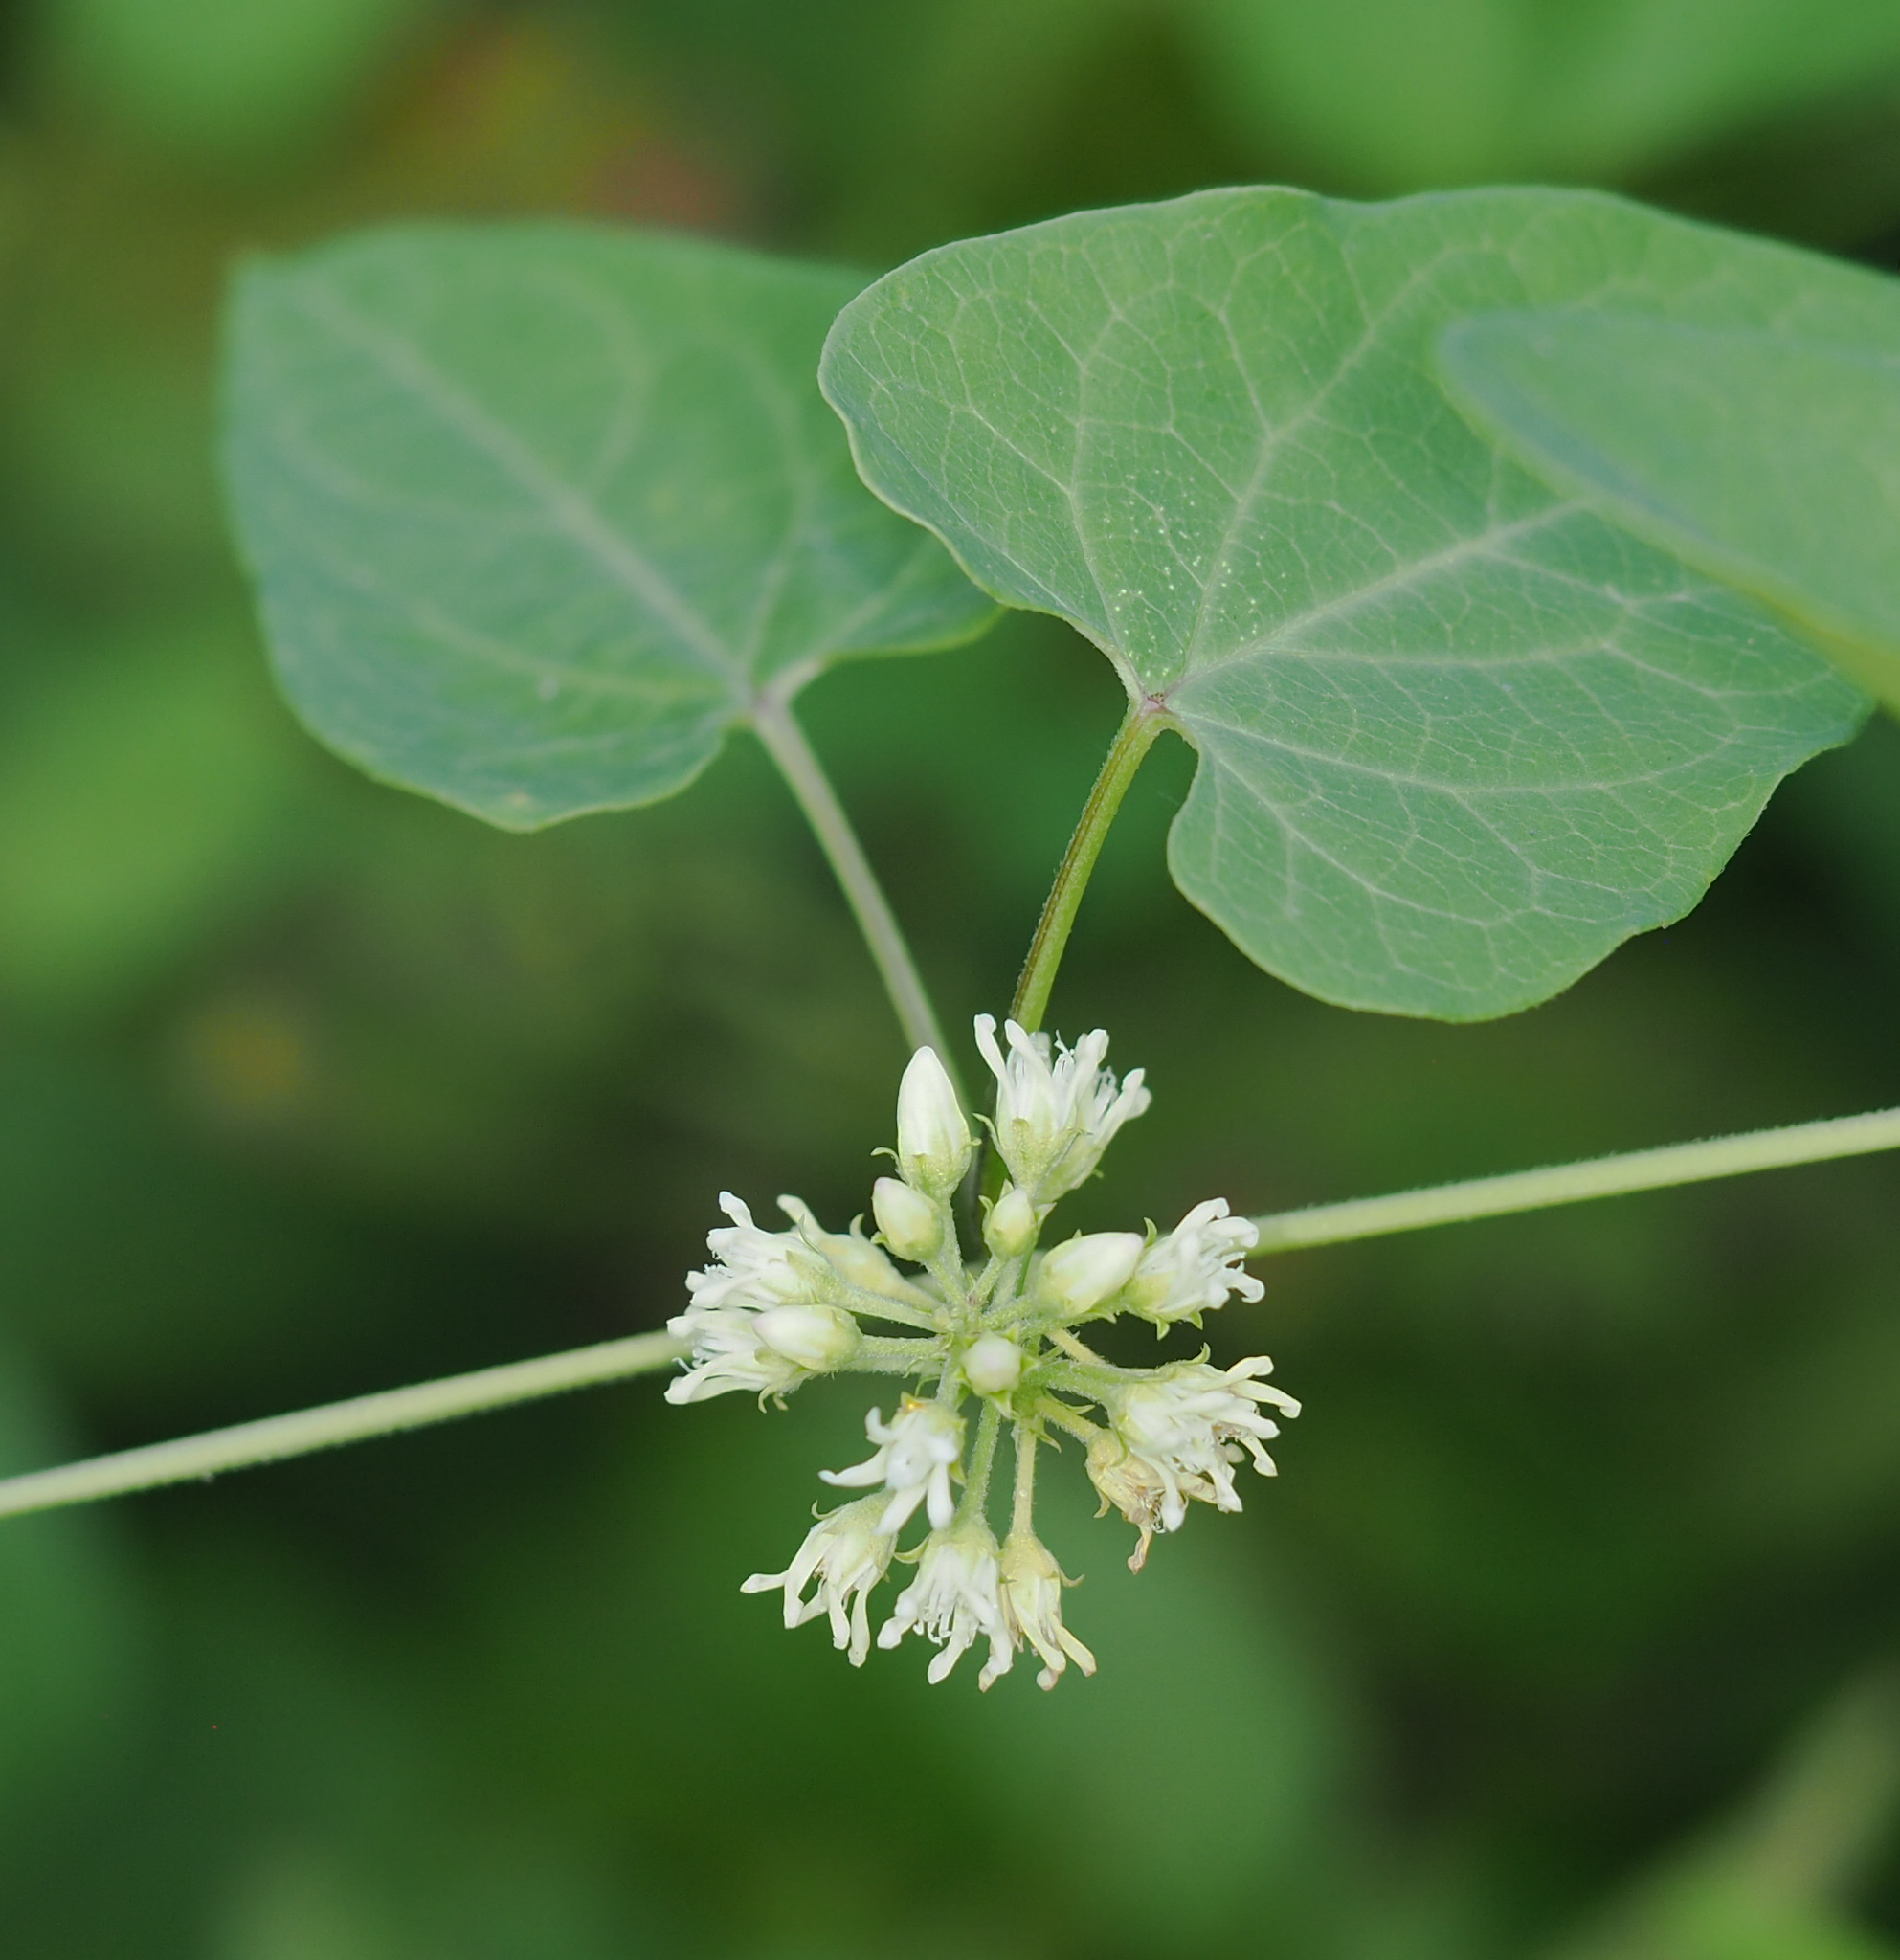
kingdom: Plantae
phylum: Tracheophyta
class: Magnoliopsida
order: Gentianales
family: Apocynaceae
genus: Cynanchum
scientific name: Cynanchum laeve
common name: Sandvine
